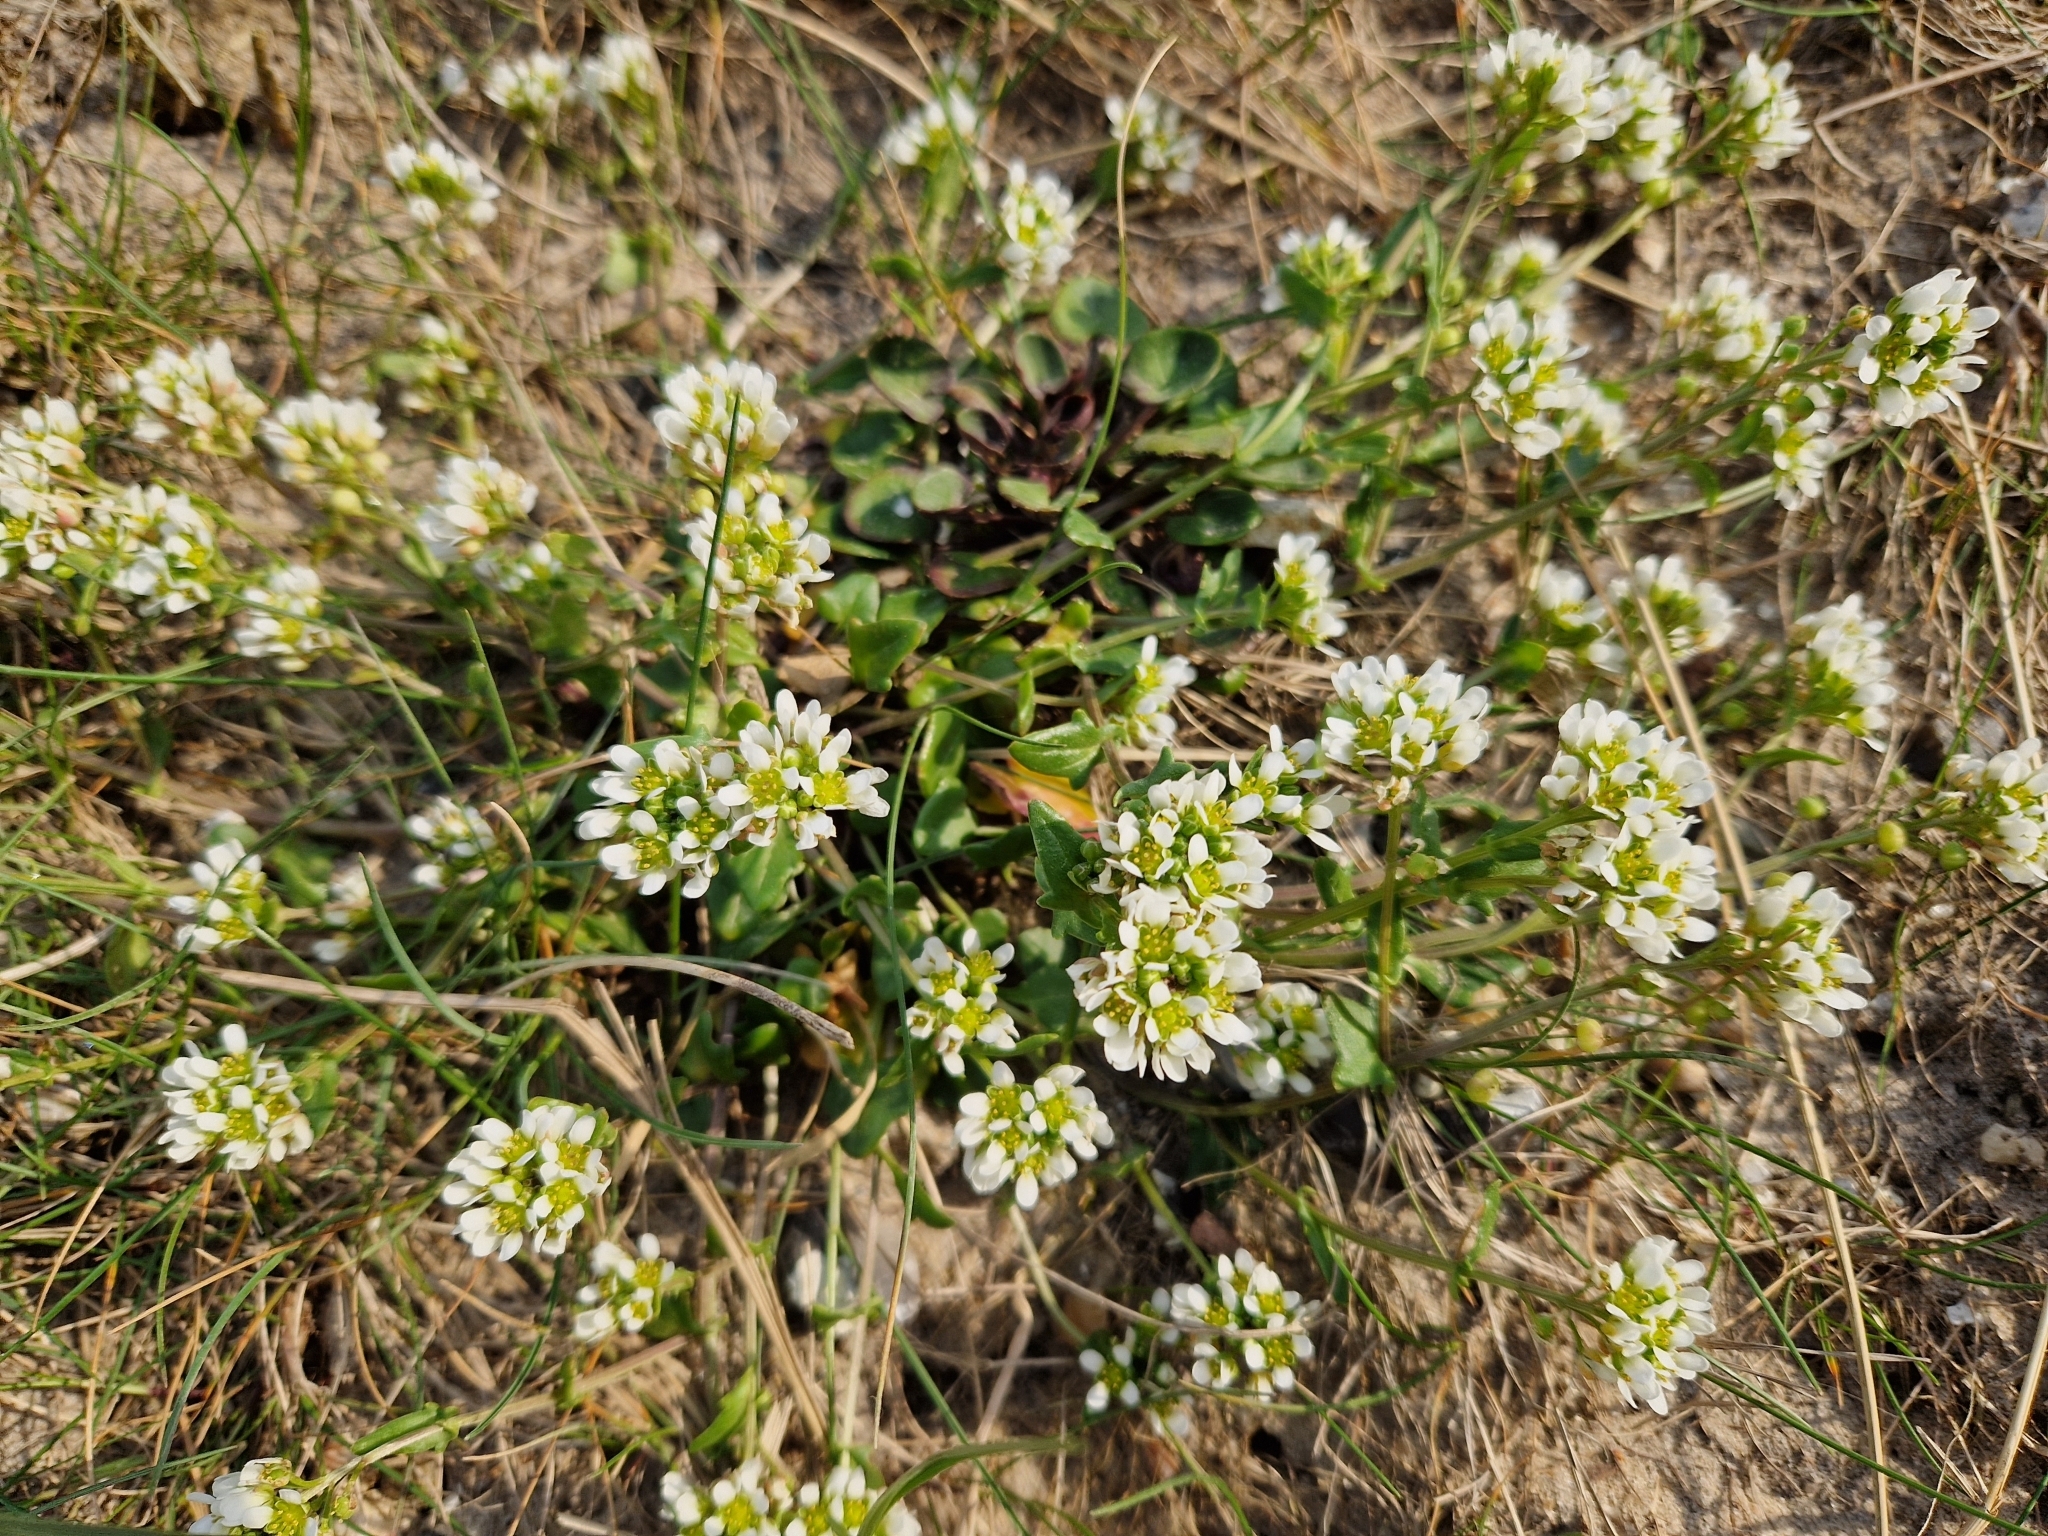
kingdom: Plantae
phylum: Tracheophyta
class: Magnoliopsida
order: Brassicales
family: Brassicaceae
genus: Cochlearia
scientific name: Cochlearia officinalis
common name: Scurvy-grass
